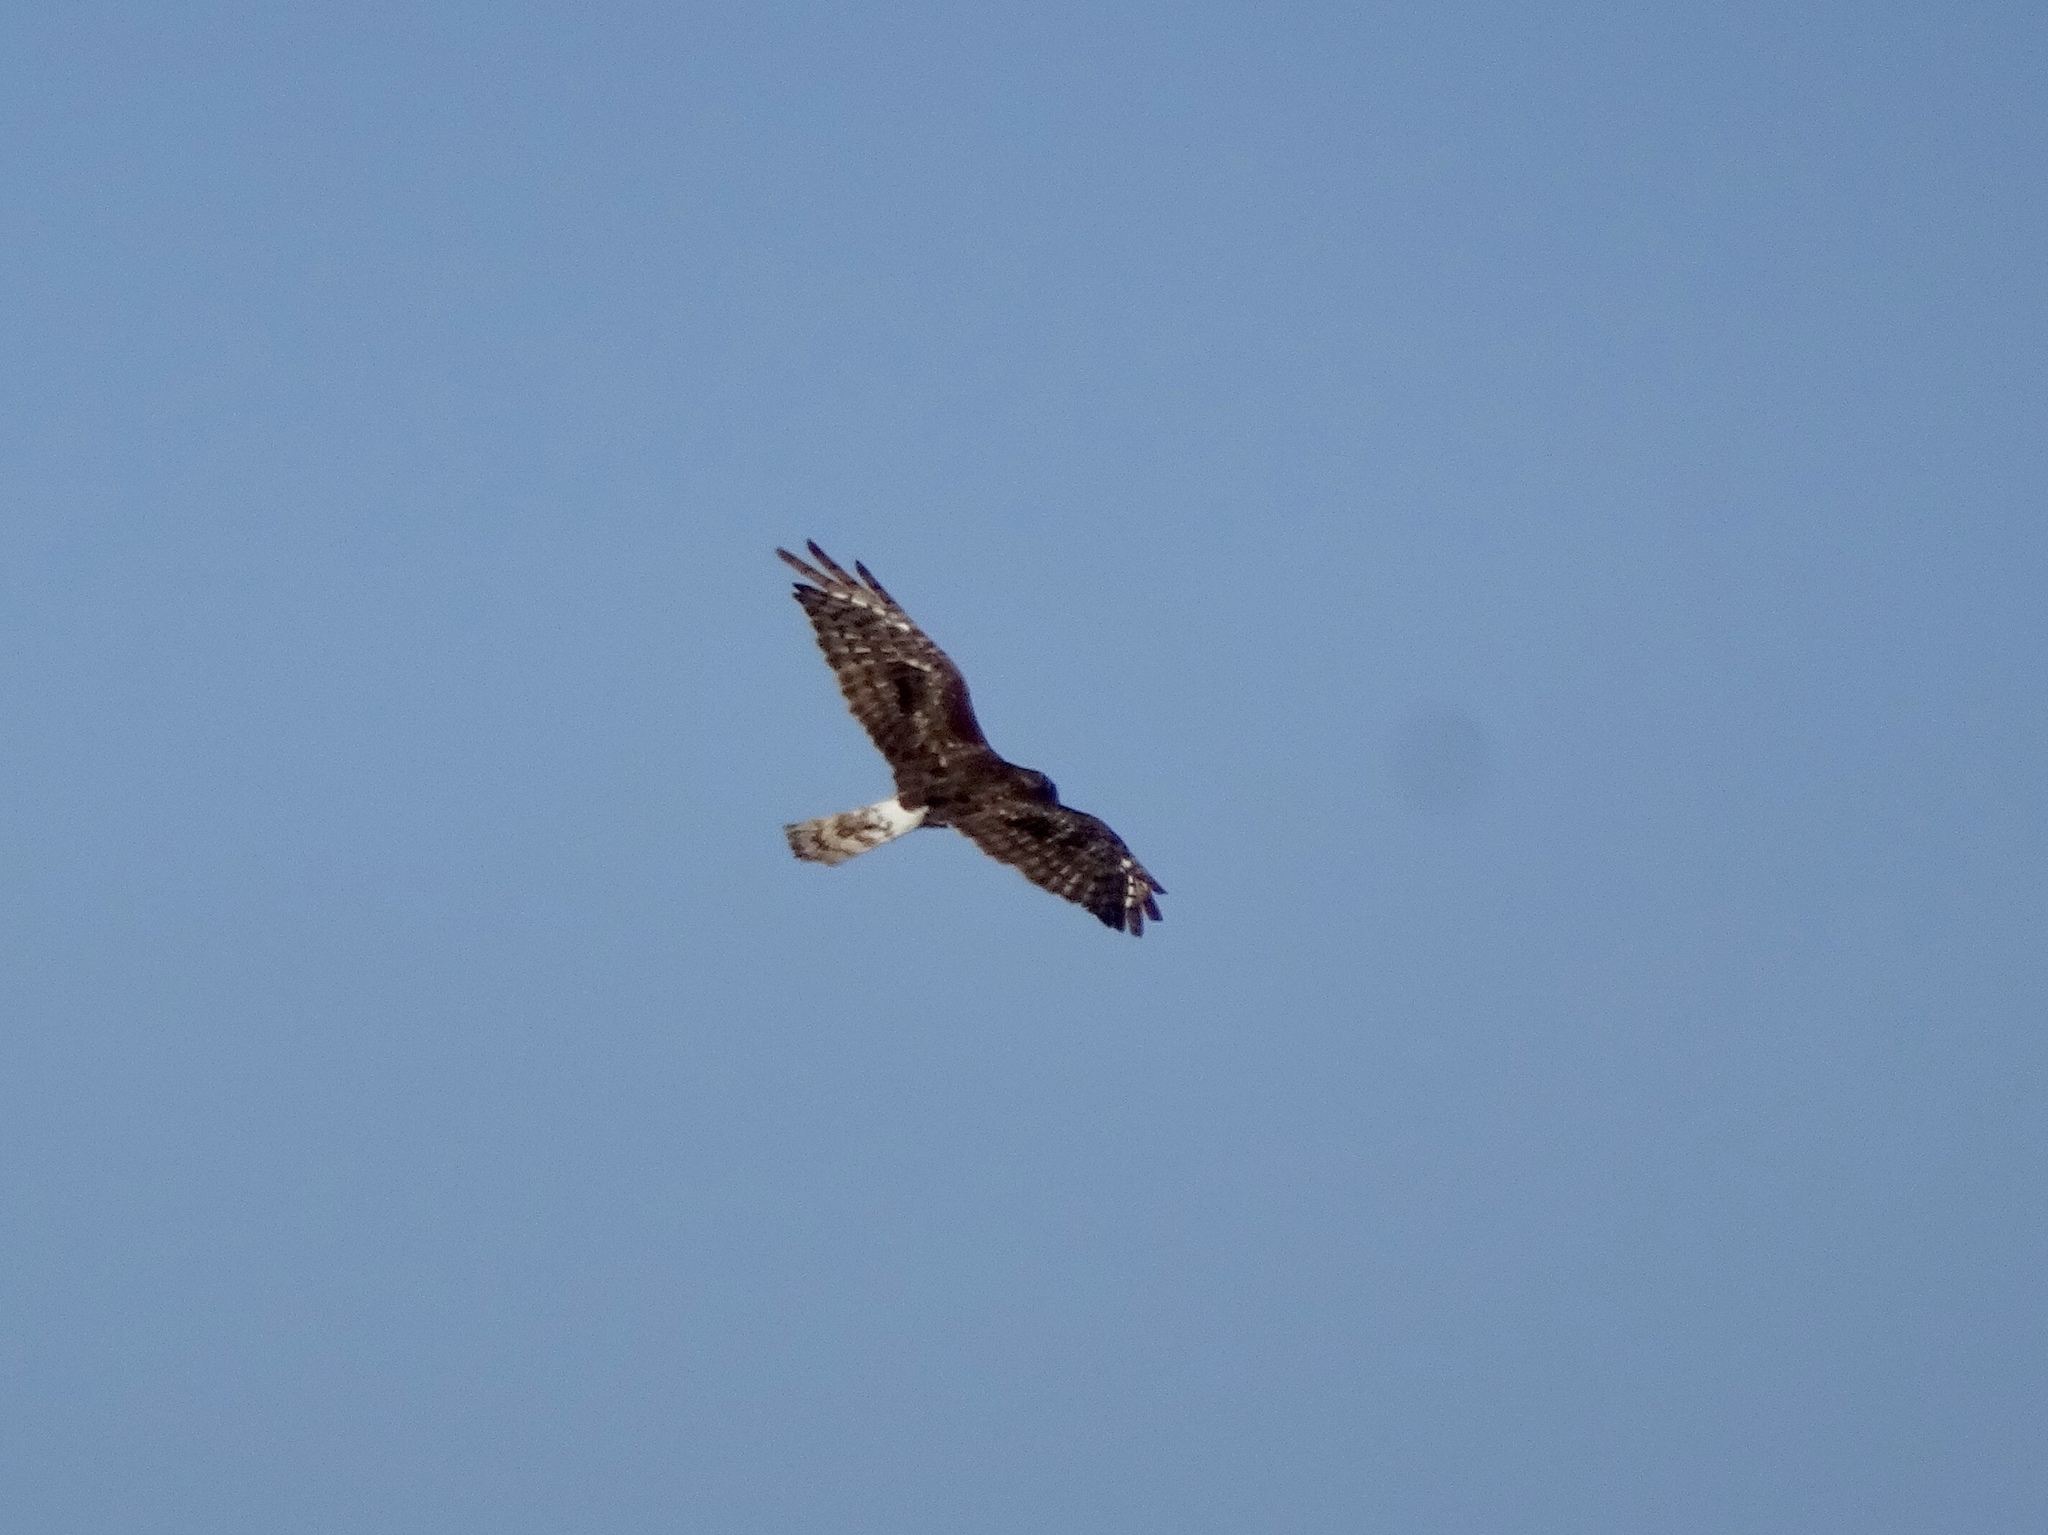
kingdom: Animalia
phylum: Chordata
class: Aves
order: Accipitriformes
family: Accipitridae
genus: Circus
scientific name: Circus cyaneus
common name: Hen harrier
